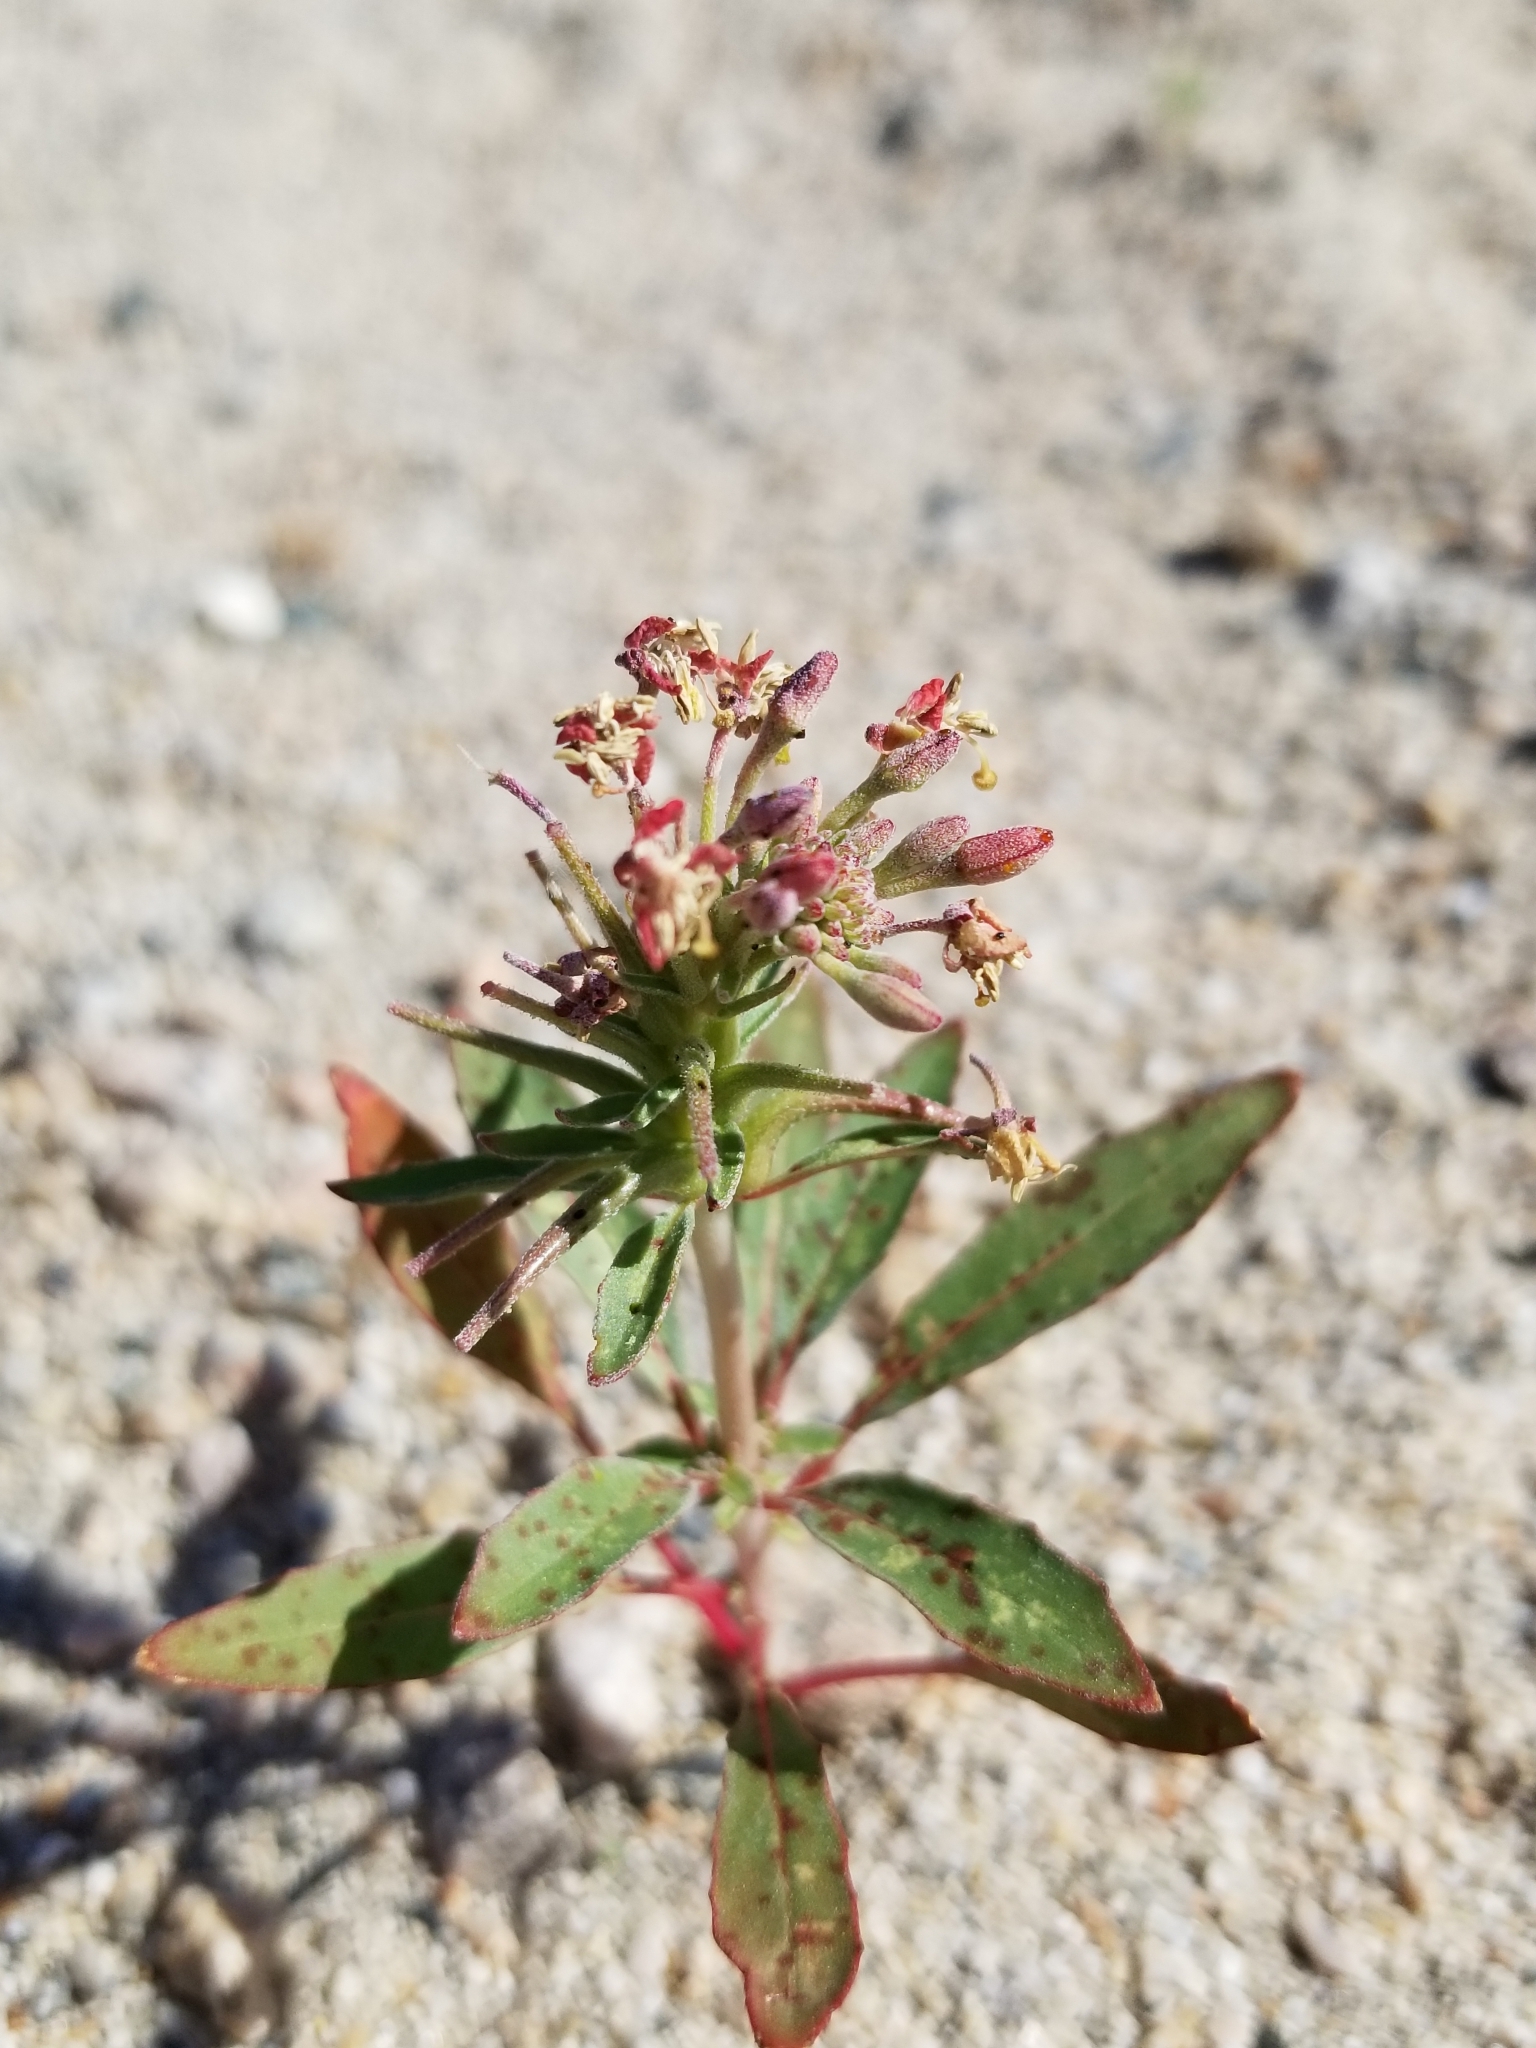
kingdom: Plantae
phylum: Tracheophyta
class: Magnoliopsida
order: Myrtales
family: Onagraceae
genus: Eremothera
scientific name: Eremothera boothii
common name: Booth's evening primrose
